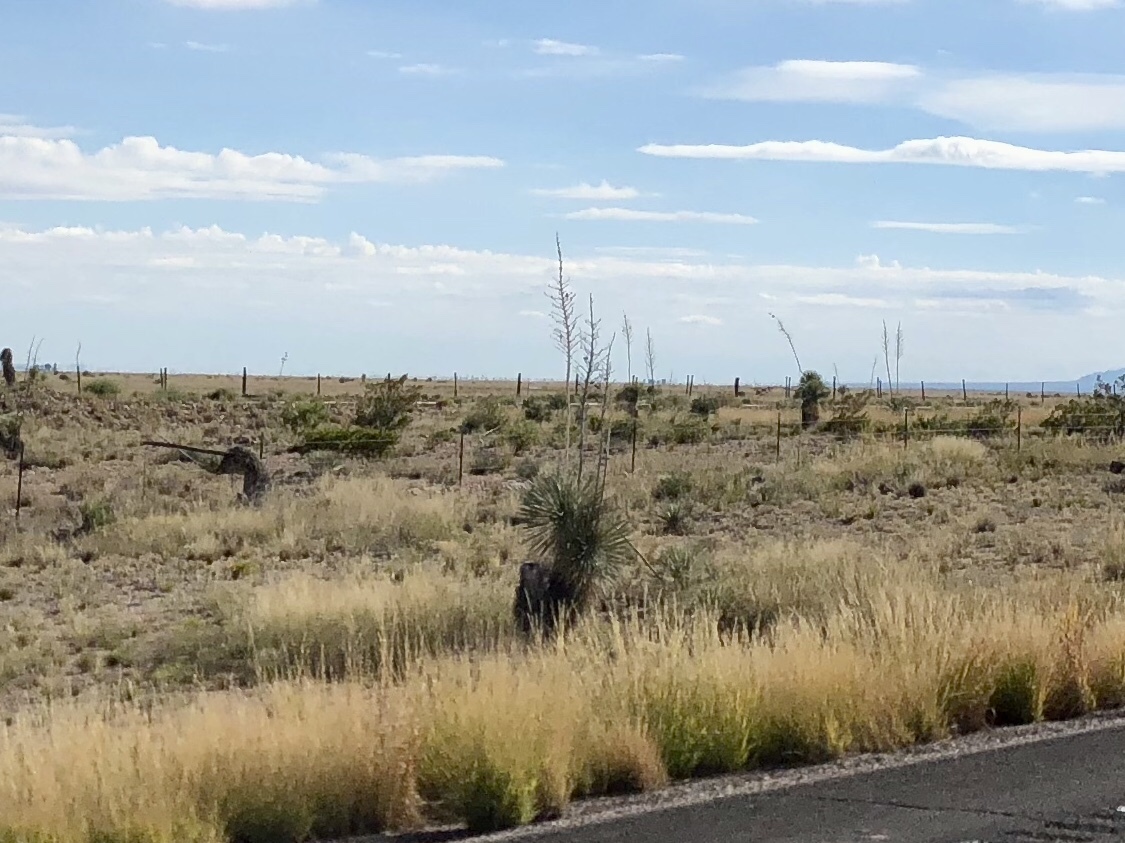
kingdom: Plantae
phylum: Tracheophyta
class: Liliopsida
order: Asparagales
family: Asparagaceae
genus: Yucca
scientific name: Yucca elata
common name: Palmella
